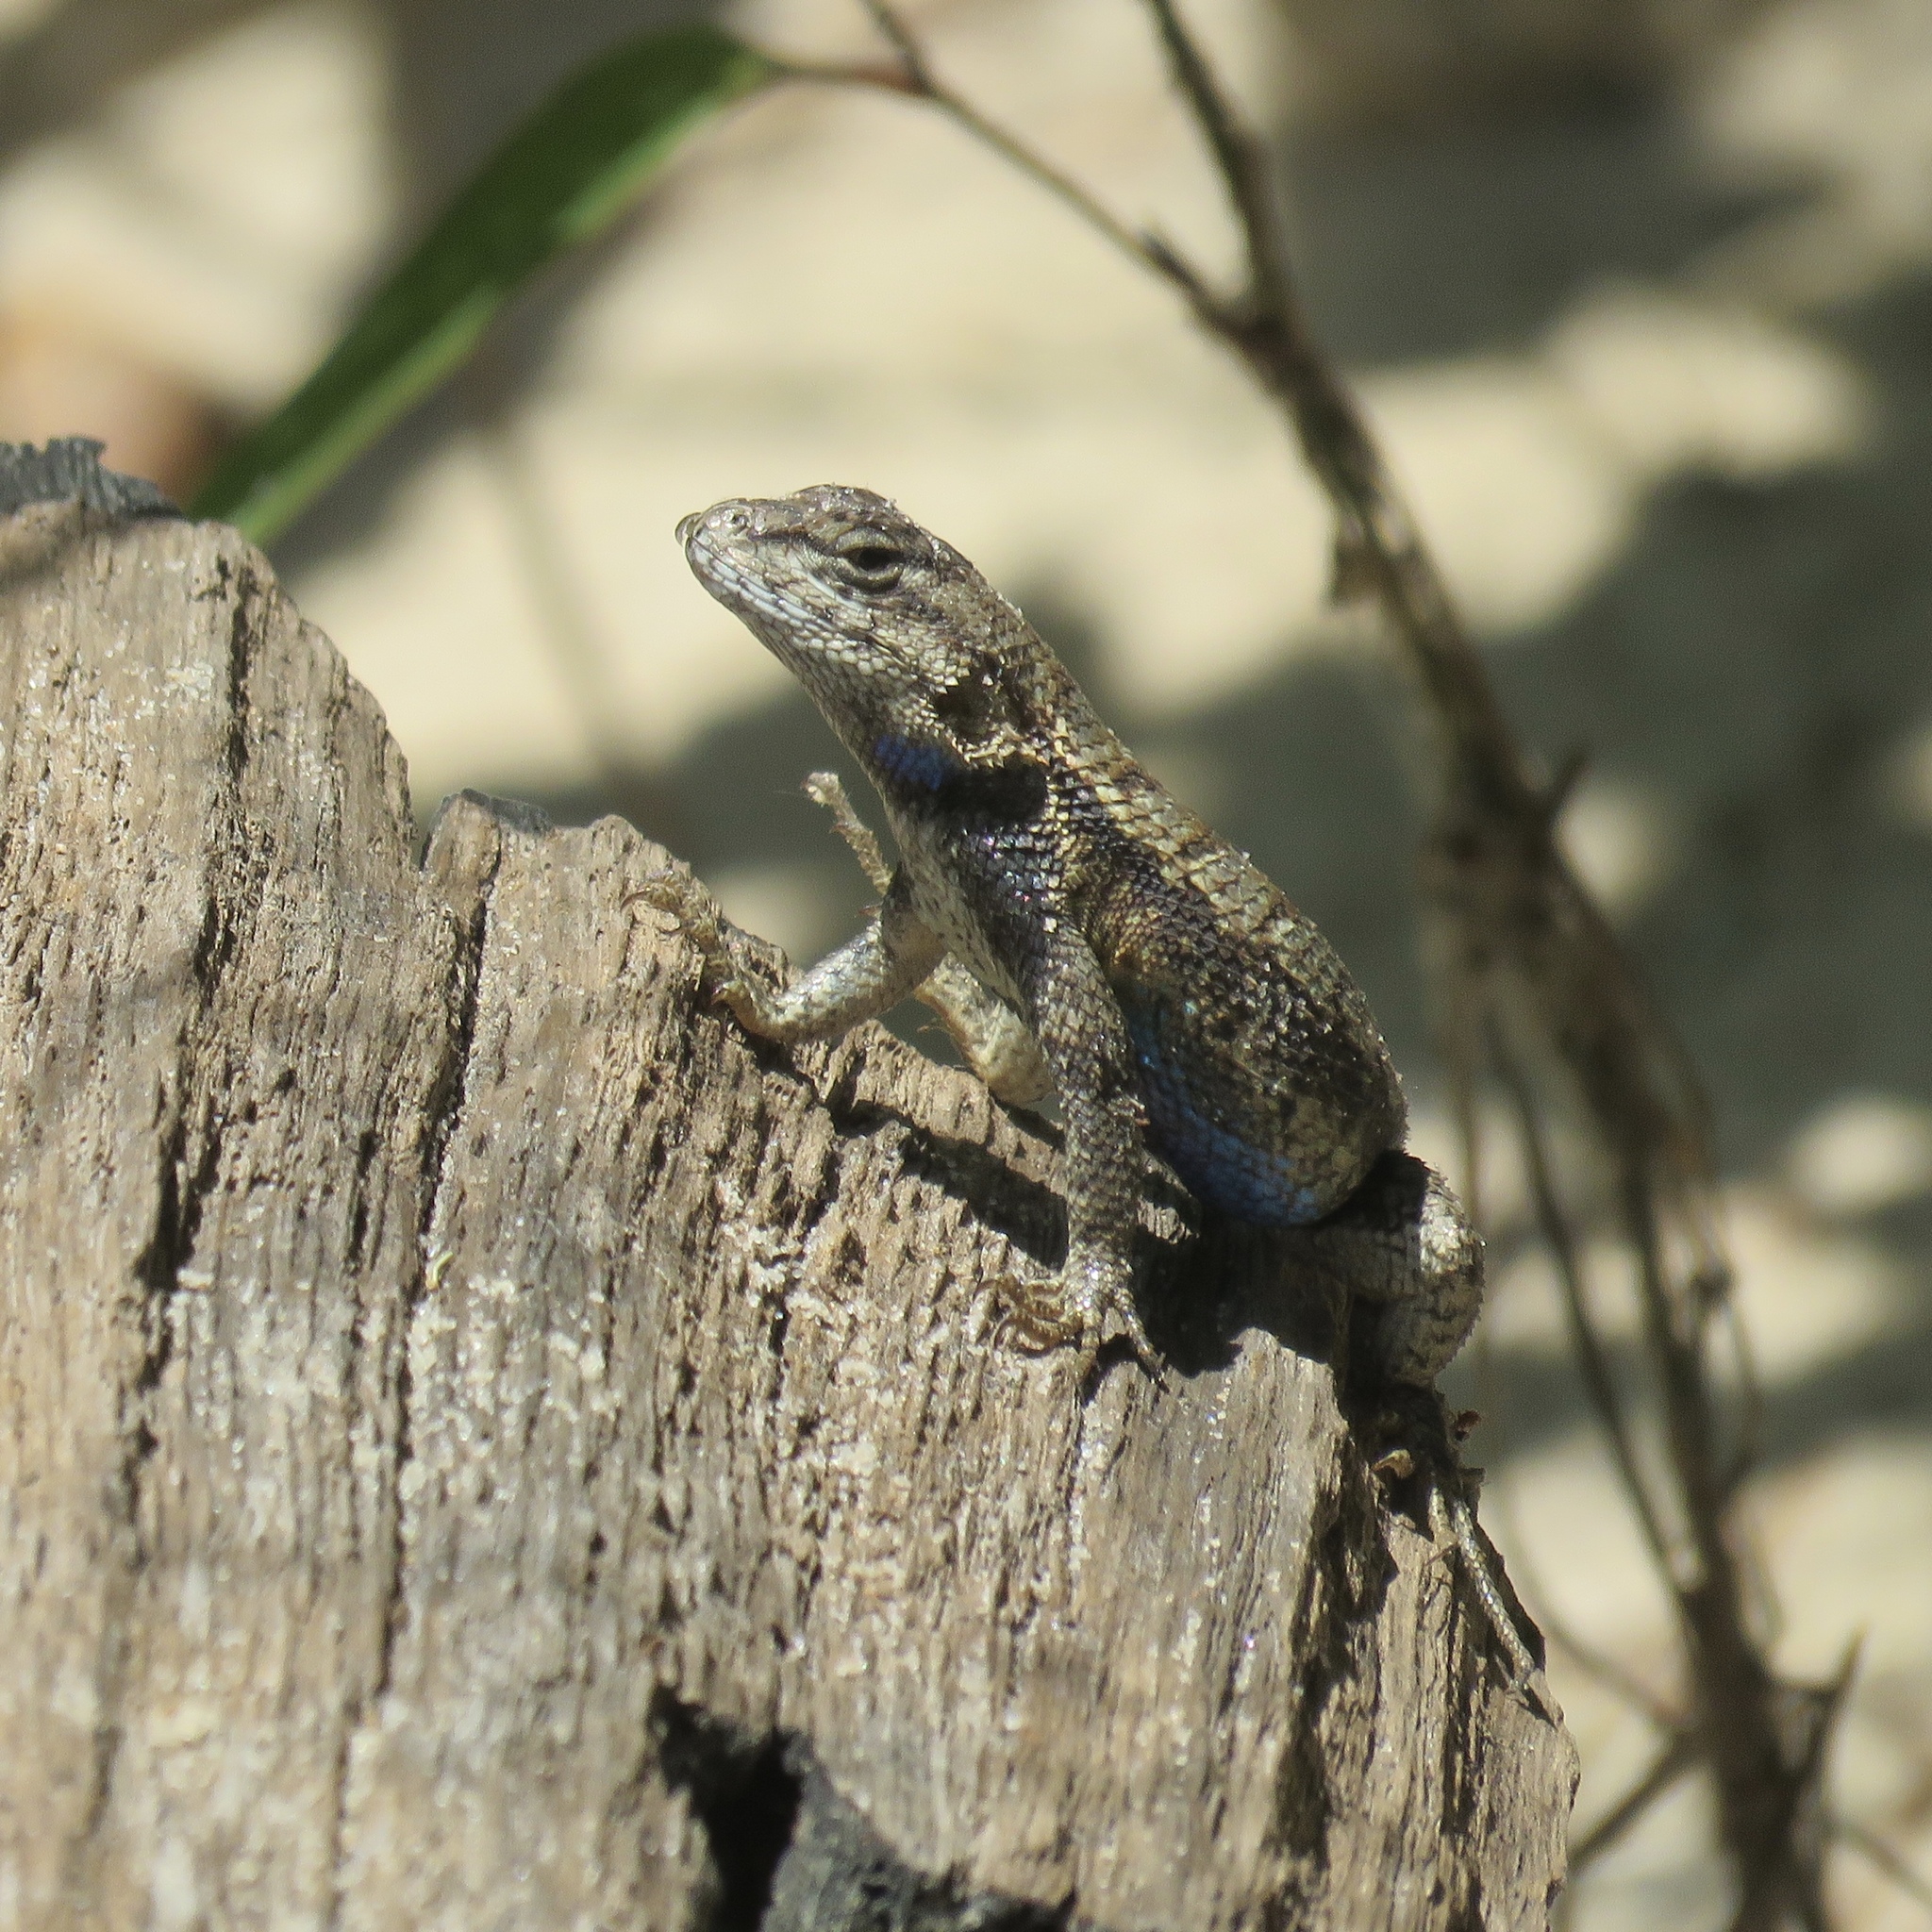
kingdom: Animalia
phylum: Chordata
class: Squamata
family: Phrynosomatidae
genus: Sceloporus
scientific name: Sceloporus consobrinus
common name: Southern prairie lizard
